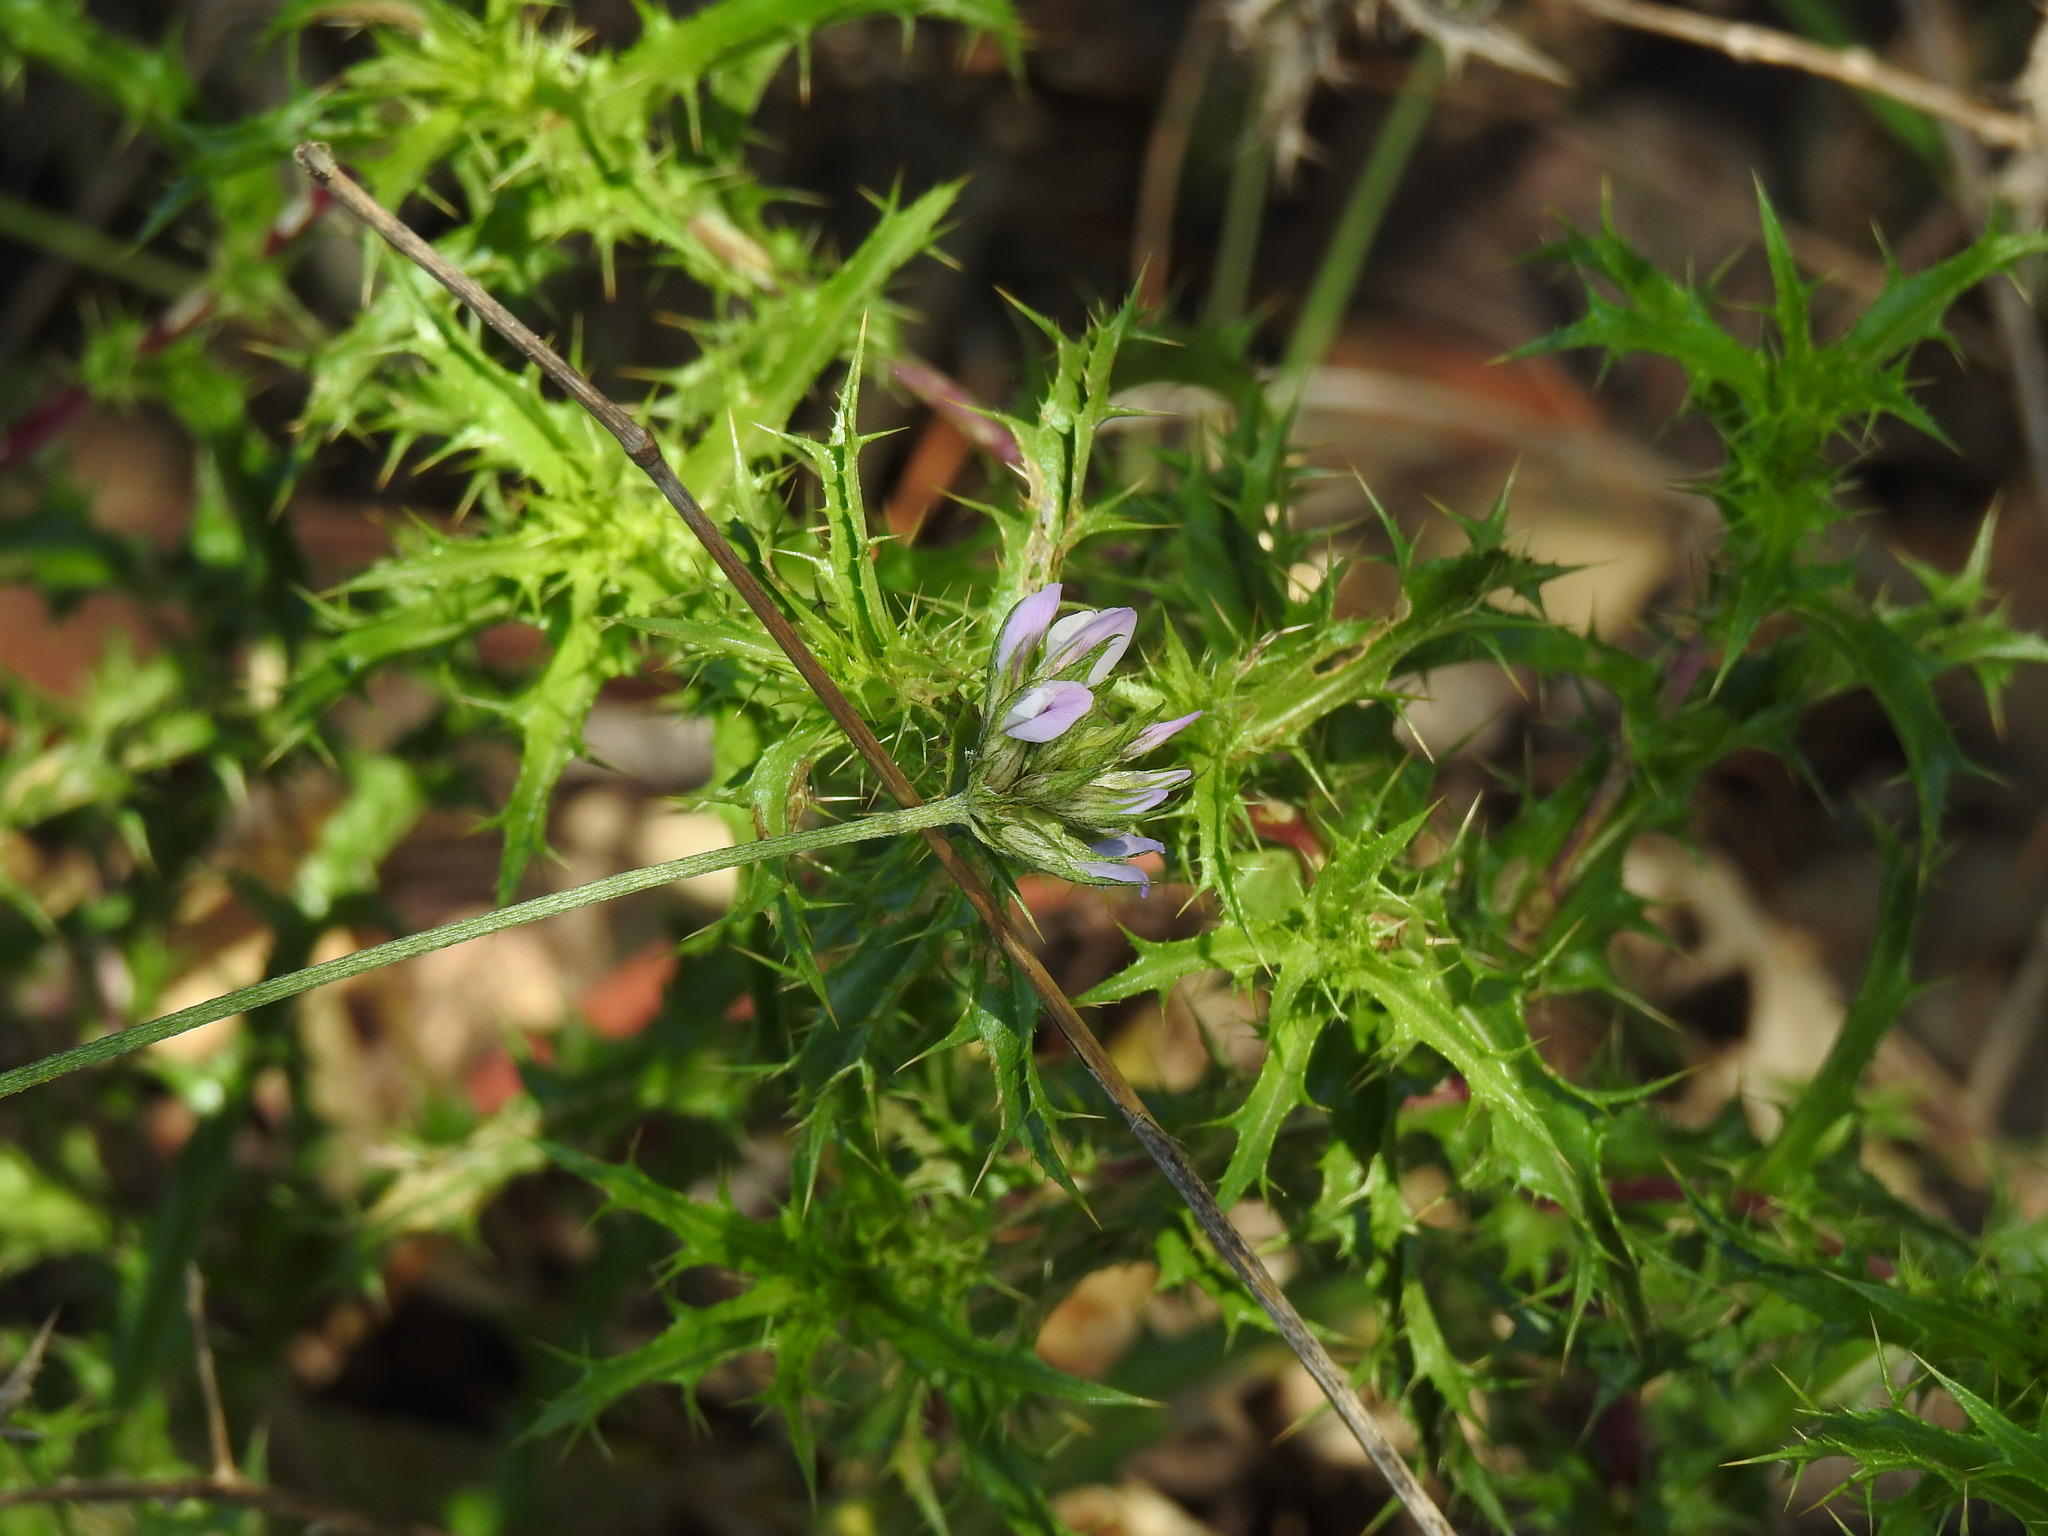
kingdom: Plantae
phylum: Tracheophyta
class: Magnoliopsida
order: Fabales
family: Fabaceae
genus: Bituminaria
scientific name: Bituminaria bituminosa
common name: Arabian pea
